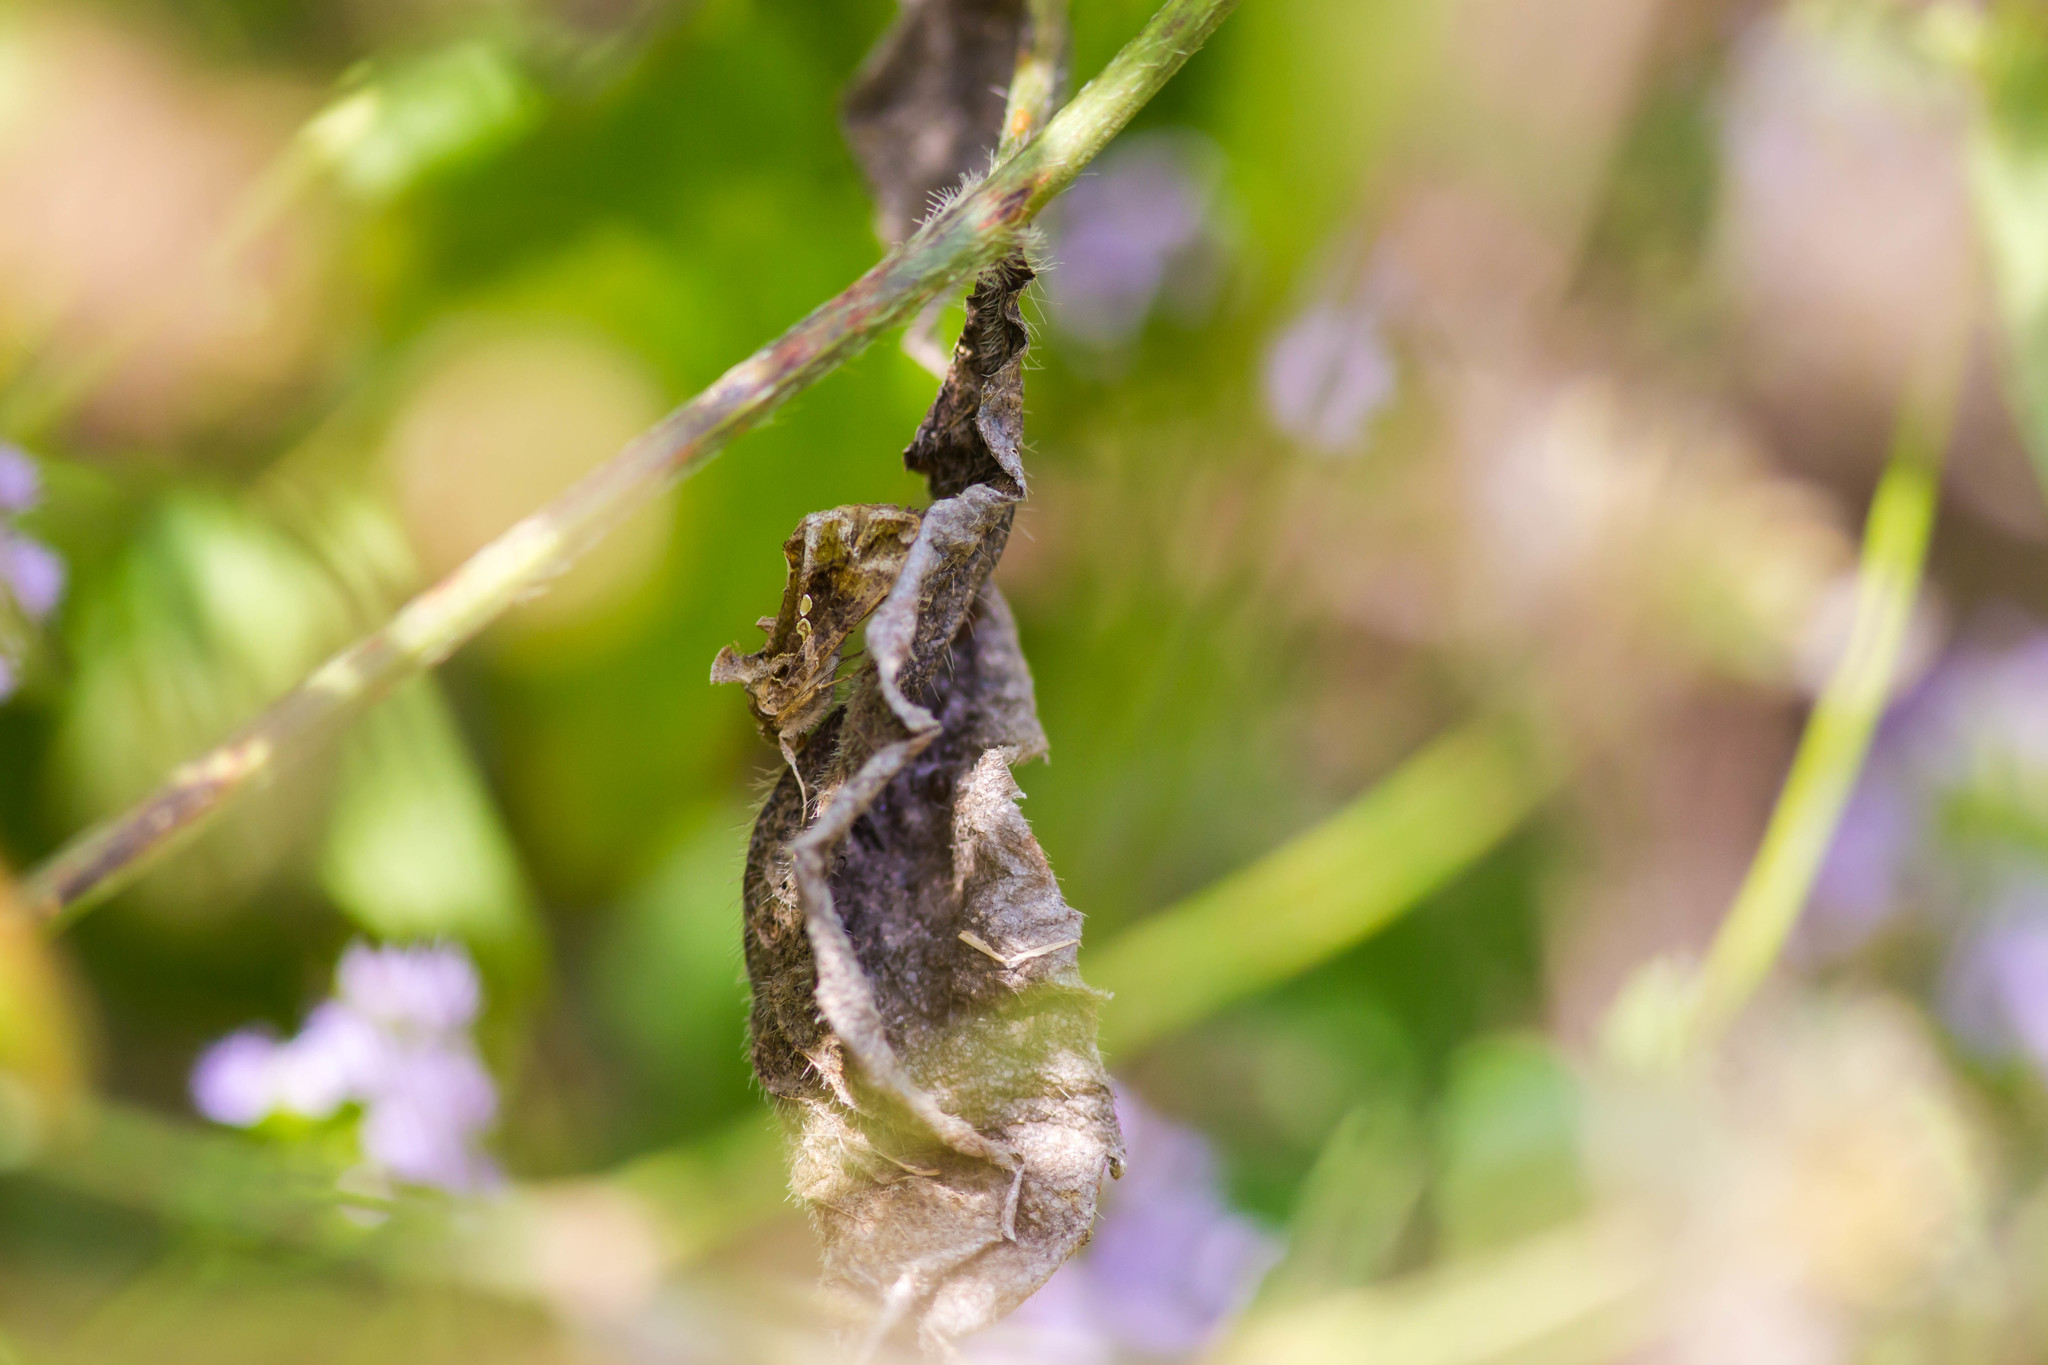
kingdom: Animalia
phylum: Arthropoda
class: Insecta
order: Lepidoptera
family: Noctuidae
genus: Chrysodeixis
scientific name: Chrysodeixis includens
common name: Cutworm moth
